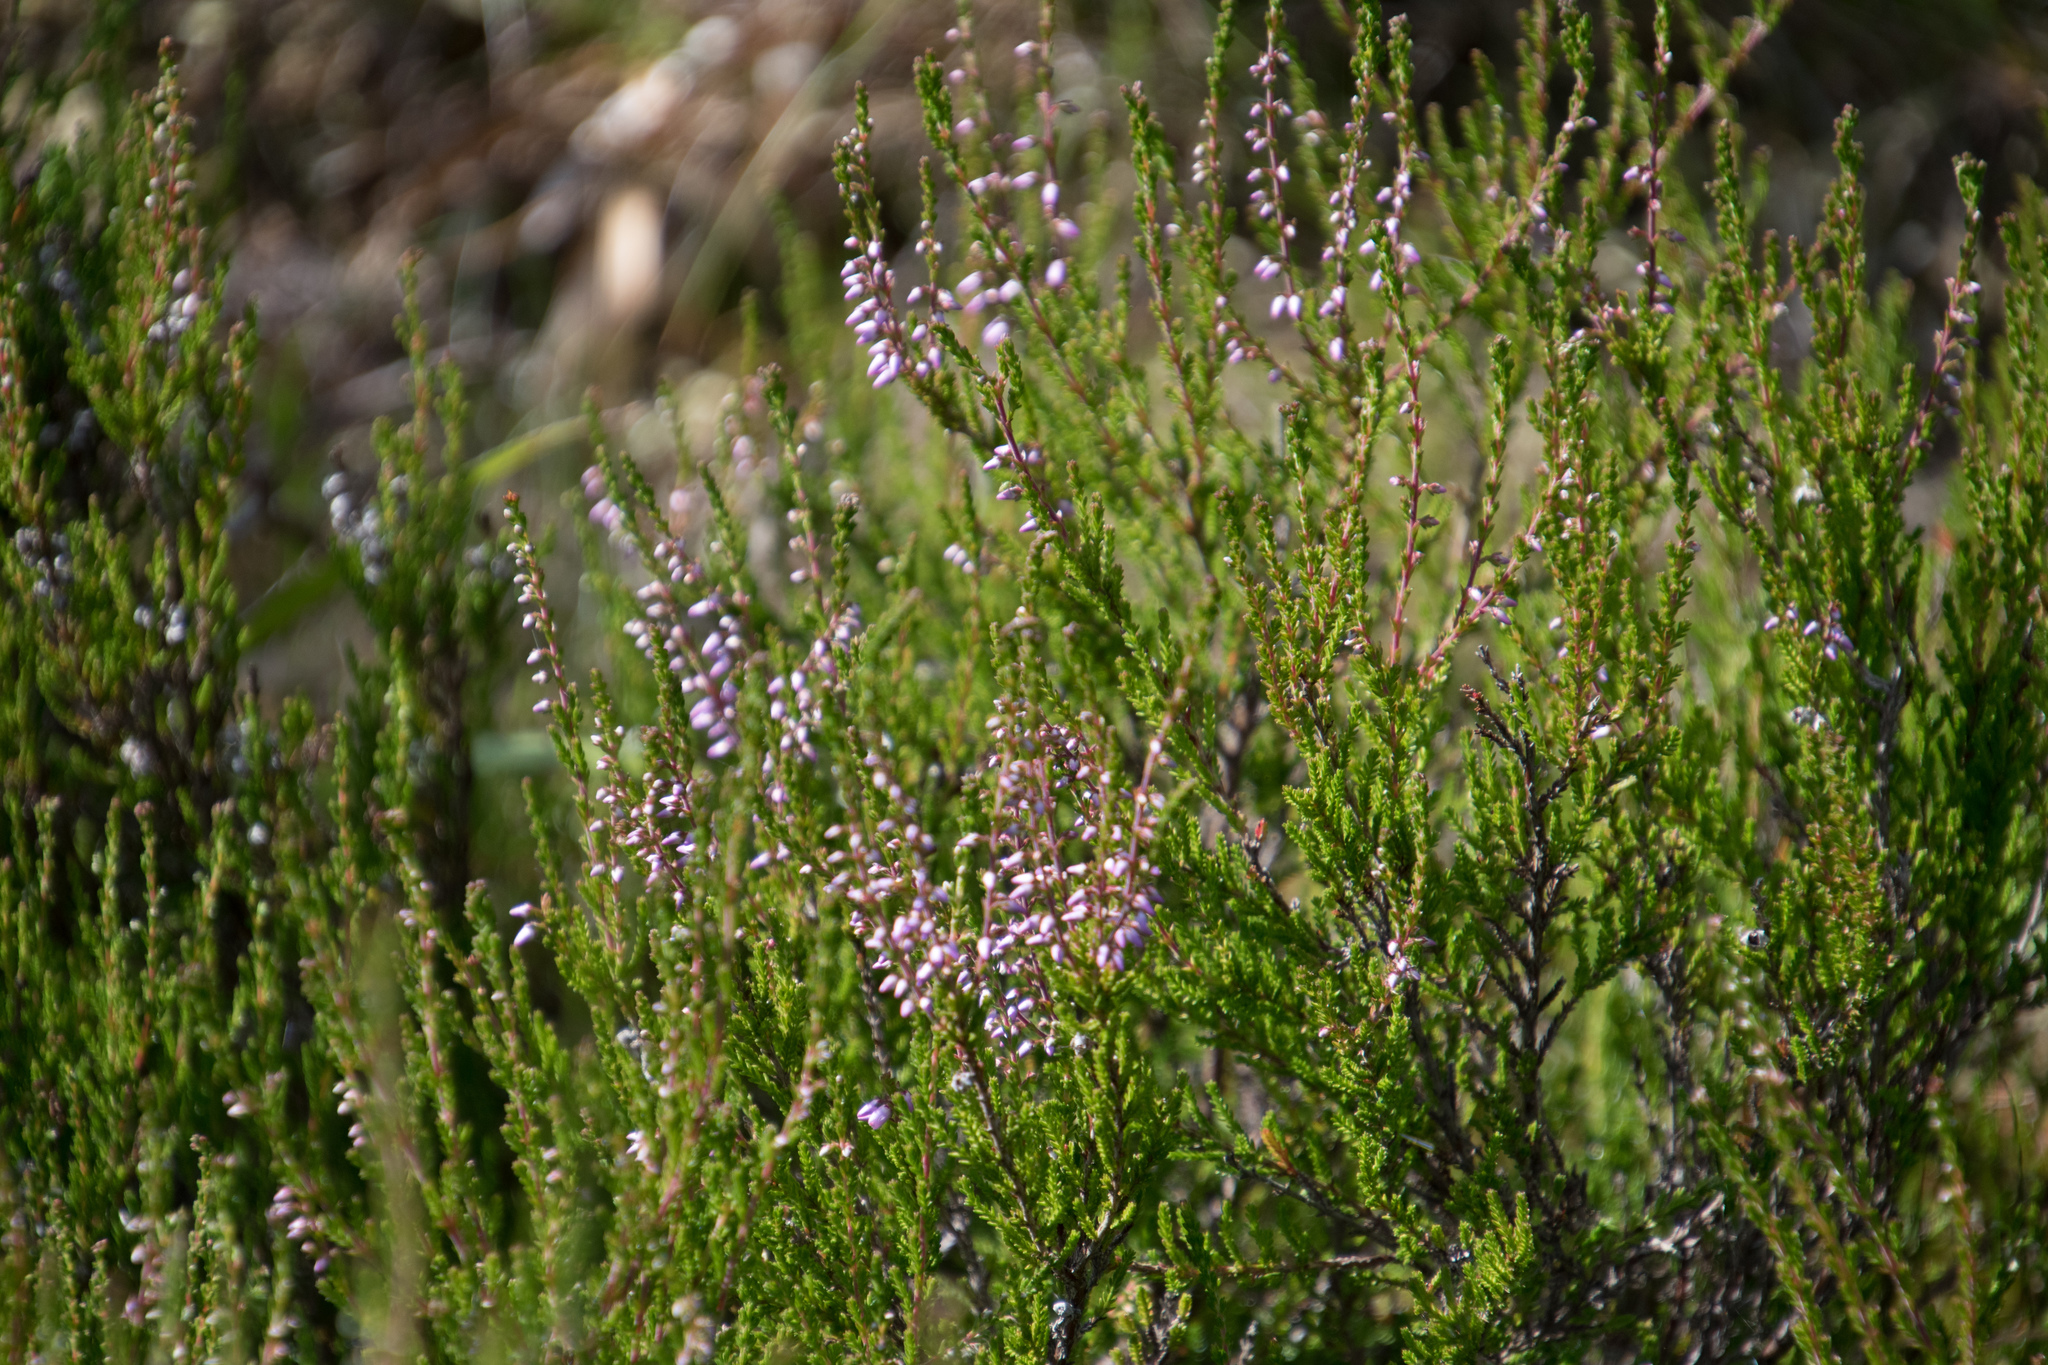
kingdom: Plantae
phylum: Tracheophyta
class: Magnoliopsida
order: Ericales
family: Ericaceae
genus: Calluna
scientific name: Calluna vulgaris
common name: Heather
